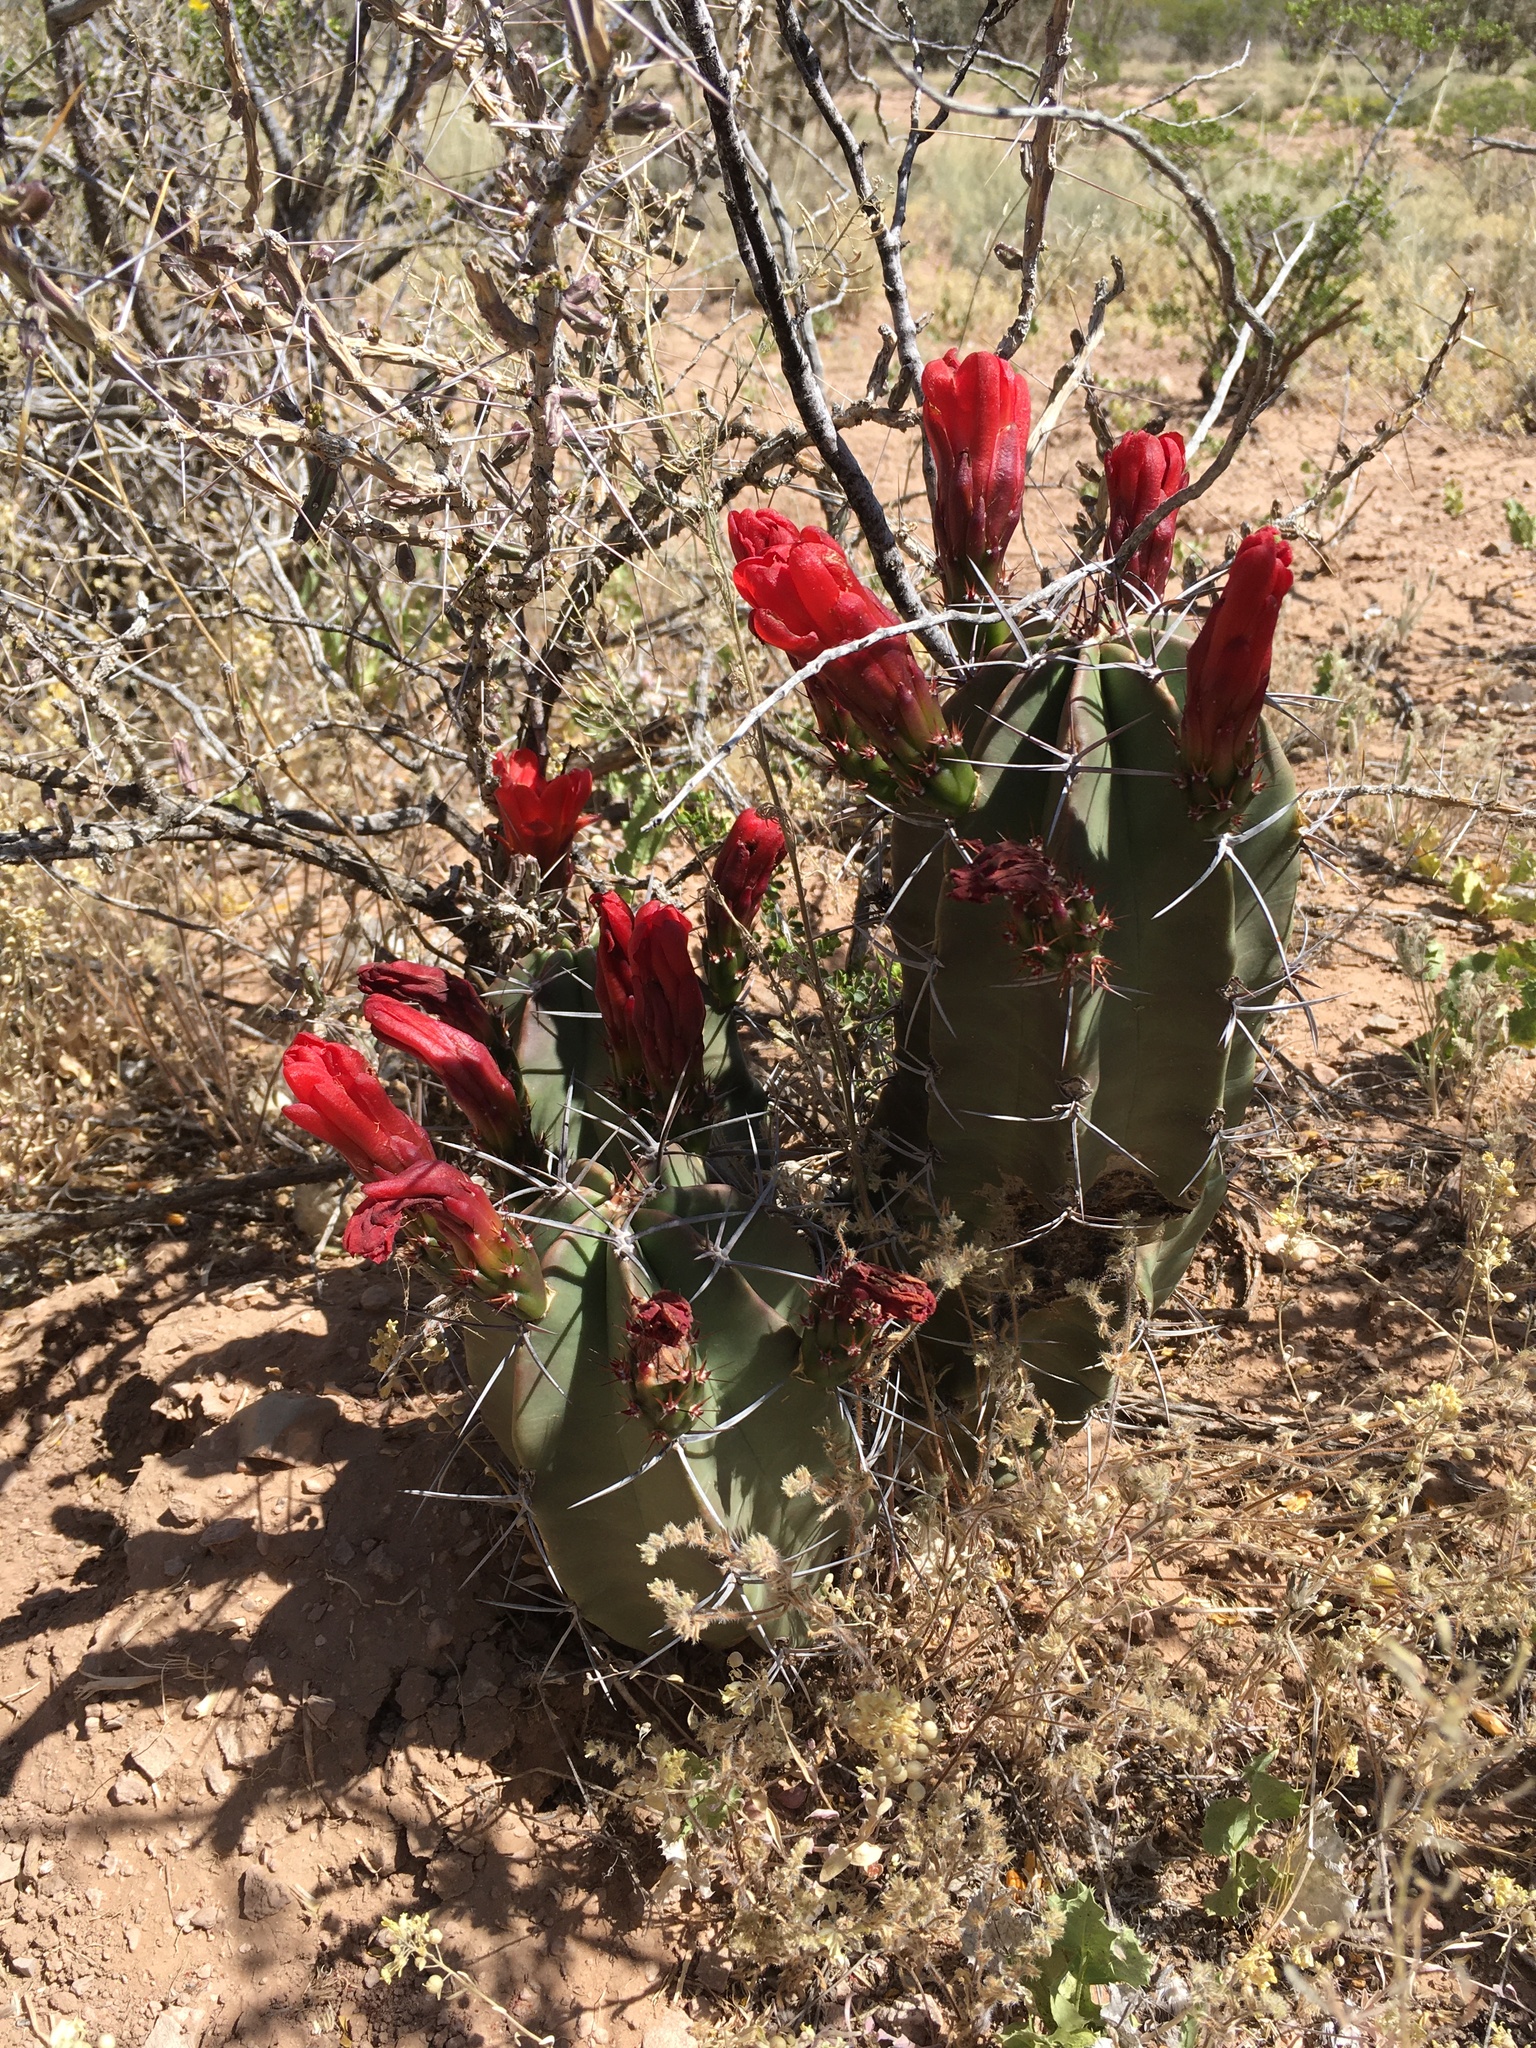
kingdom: Plantae
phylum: Tracheophyta
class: Magnoliopsida
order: Caryophyllales
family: Cactaceae
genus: Echinocereus
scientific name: Echinocereus triglochidiatus
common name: Claretcup hedgehog
